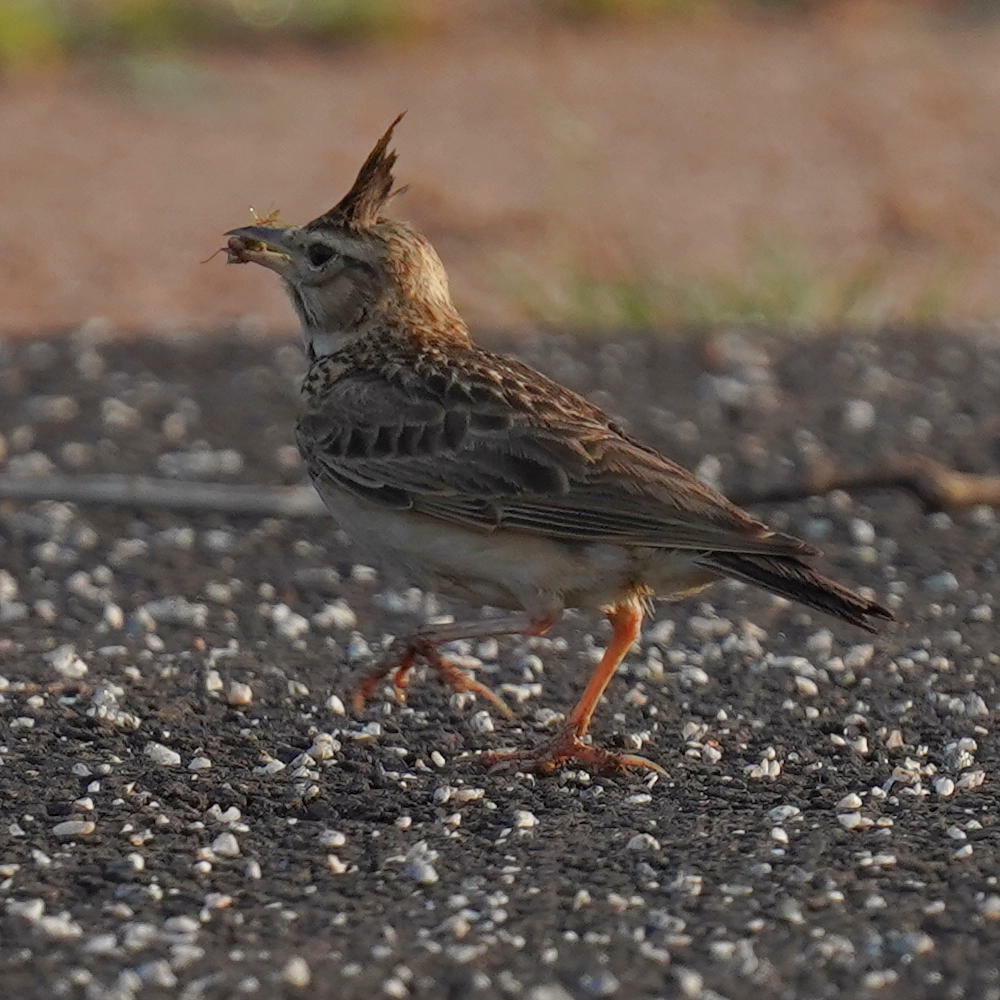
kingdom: Animalia
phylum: Chordata
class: Aves
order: Passeriformes
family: Alaudidae
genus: Galerida
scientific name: Galerida malabarica
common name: Malabar lark
